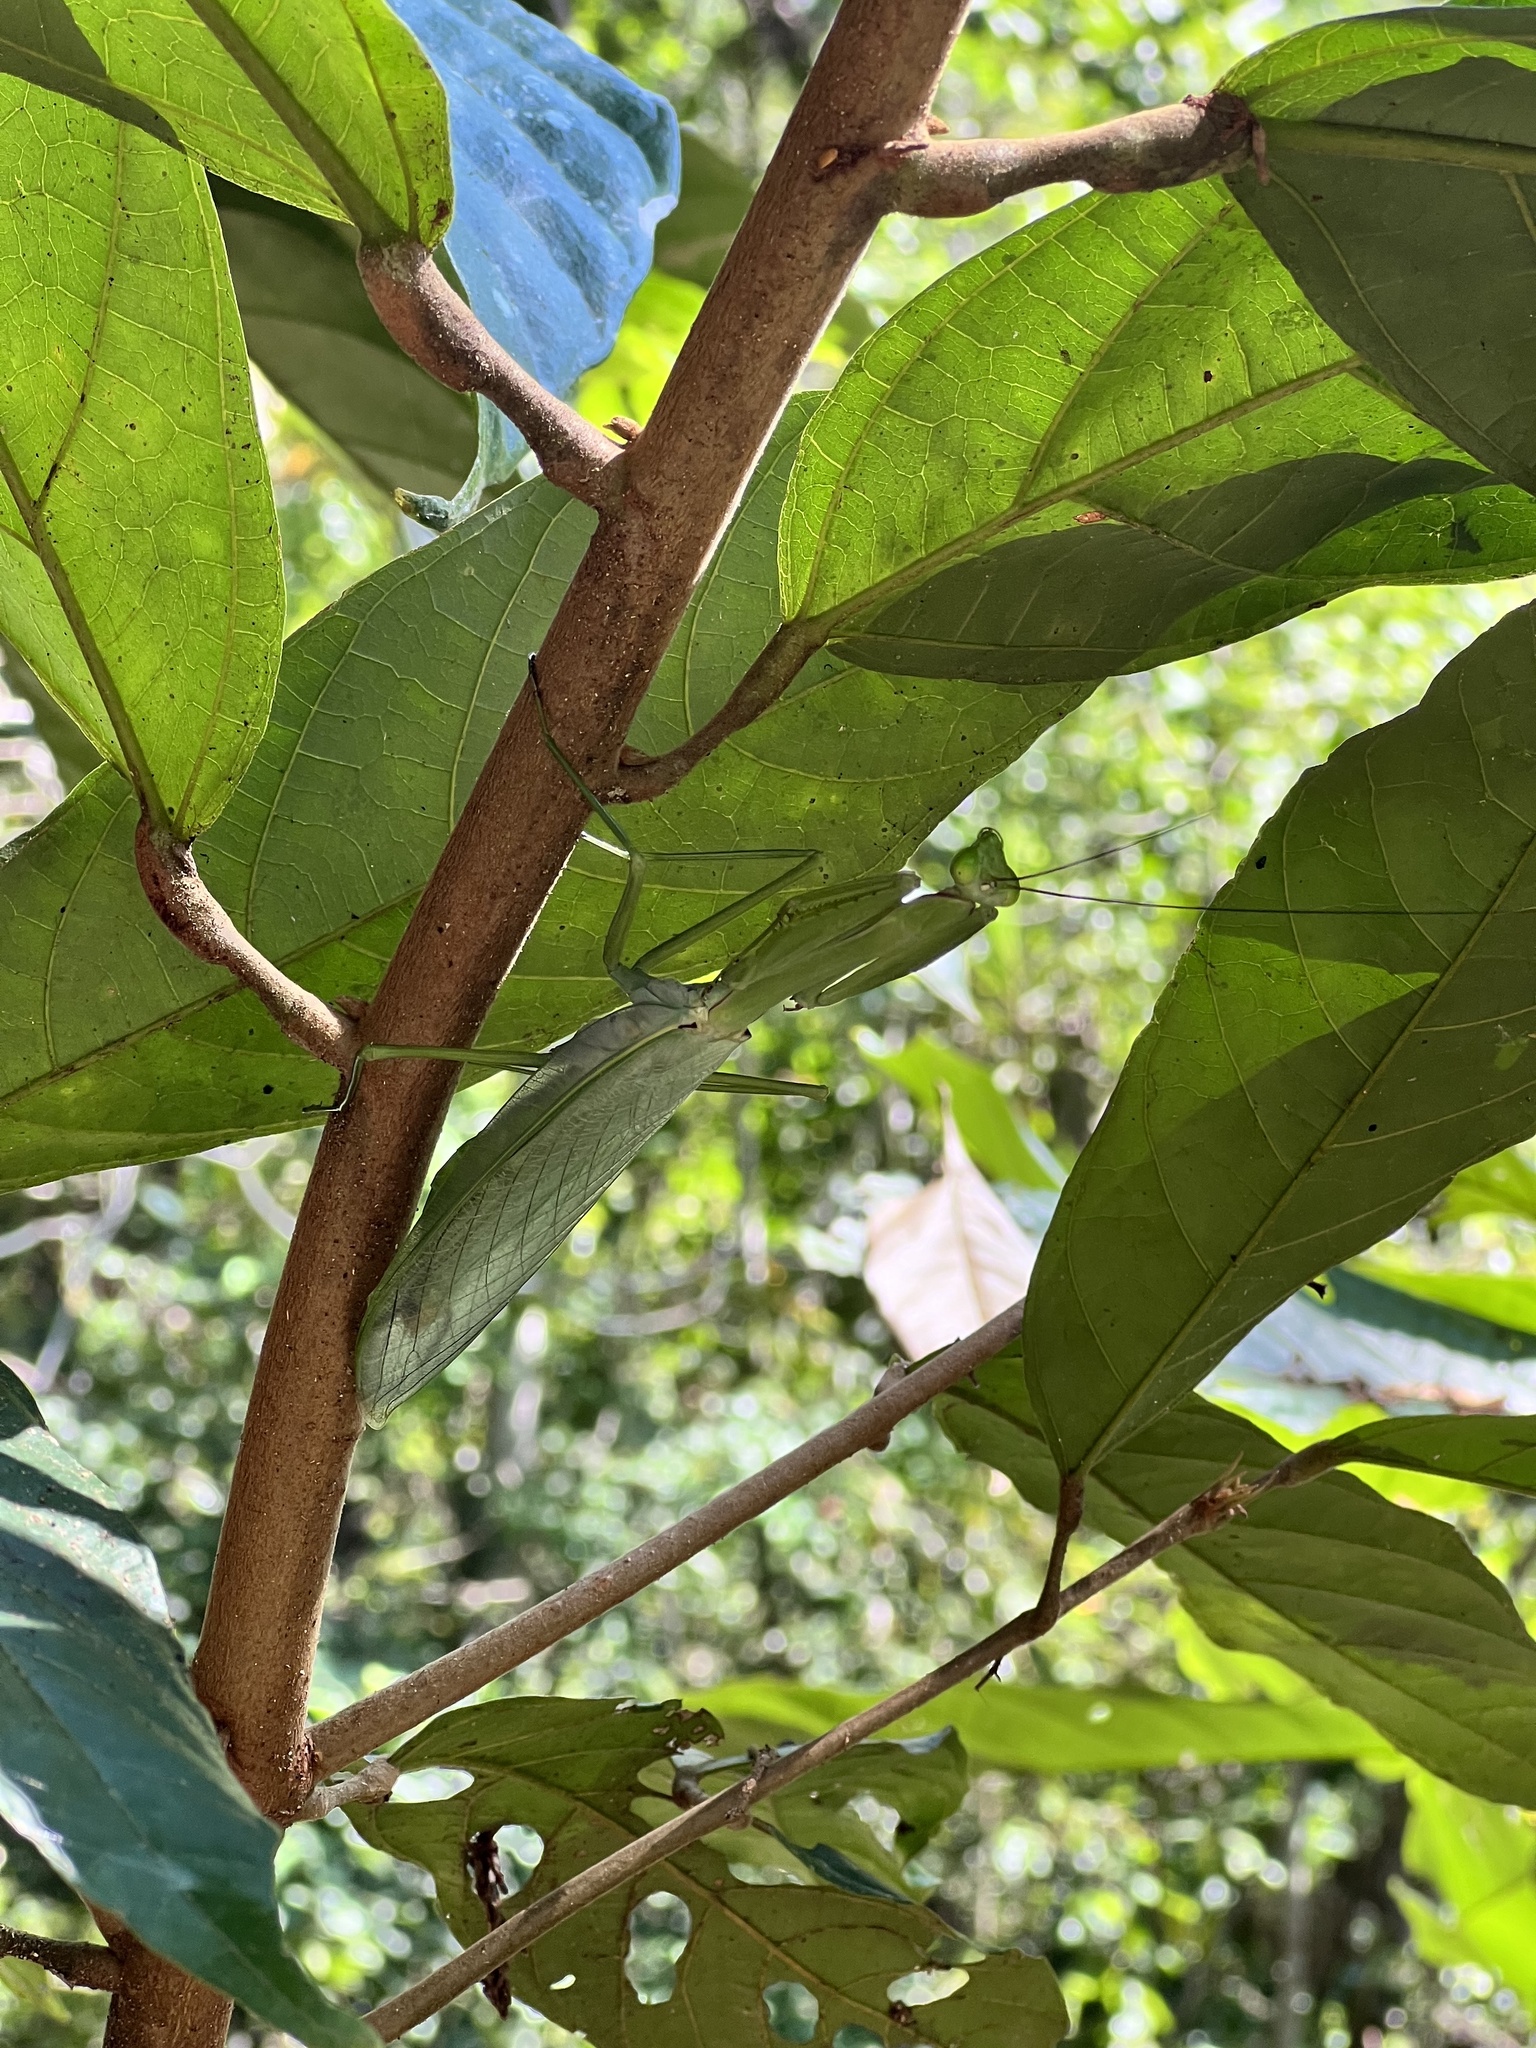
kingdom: Animalia
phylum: Arthropoda
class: Insecta
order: Mantodea
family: Photinaidae
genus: Macromantis
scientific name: Macromantis hyalina
